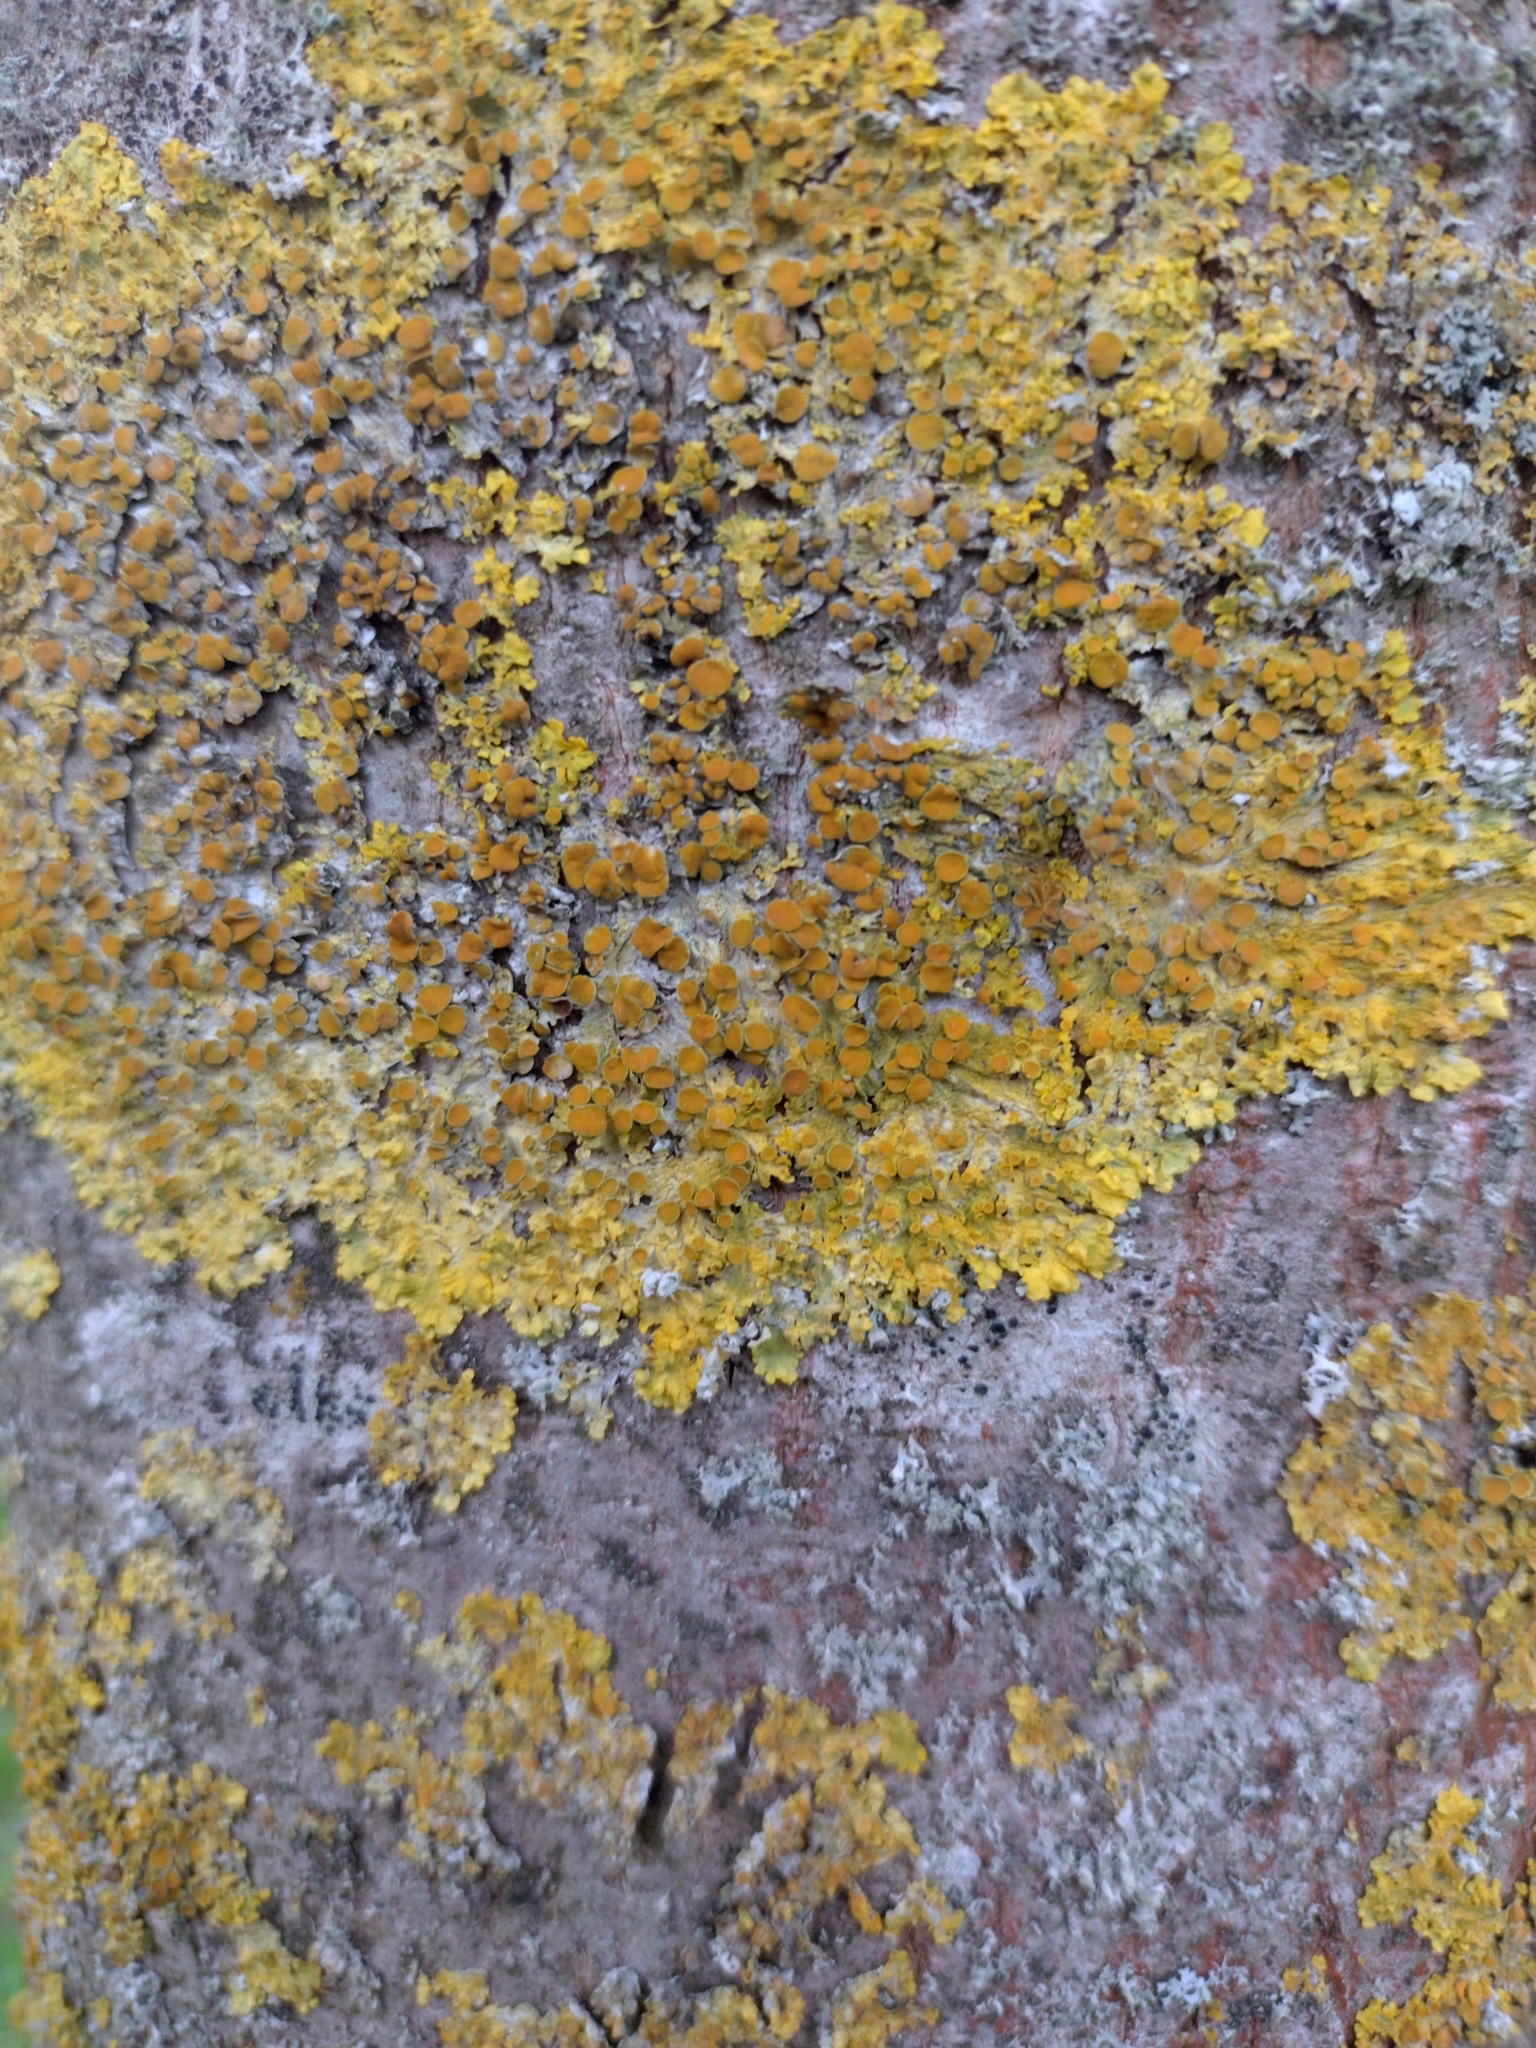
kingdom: Fungi
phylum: Ascomycota
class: Lecanoromycetes
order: Teloschistales
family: Teloschistaceae
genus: Xanthoria
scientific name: Xanthoria parietina
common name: Common orange lichen
